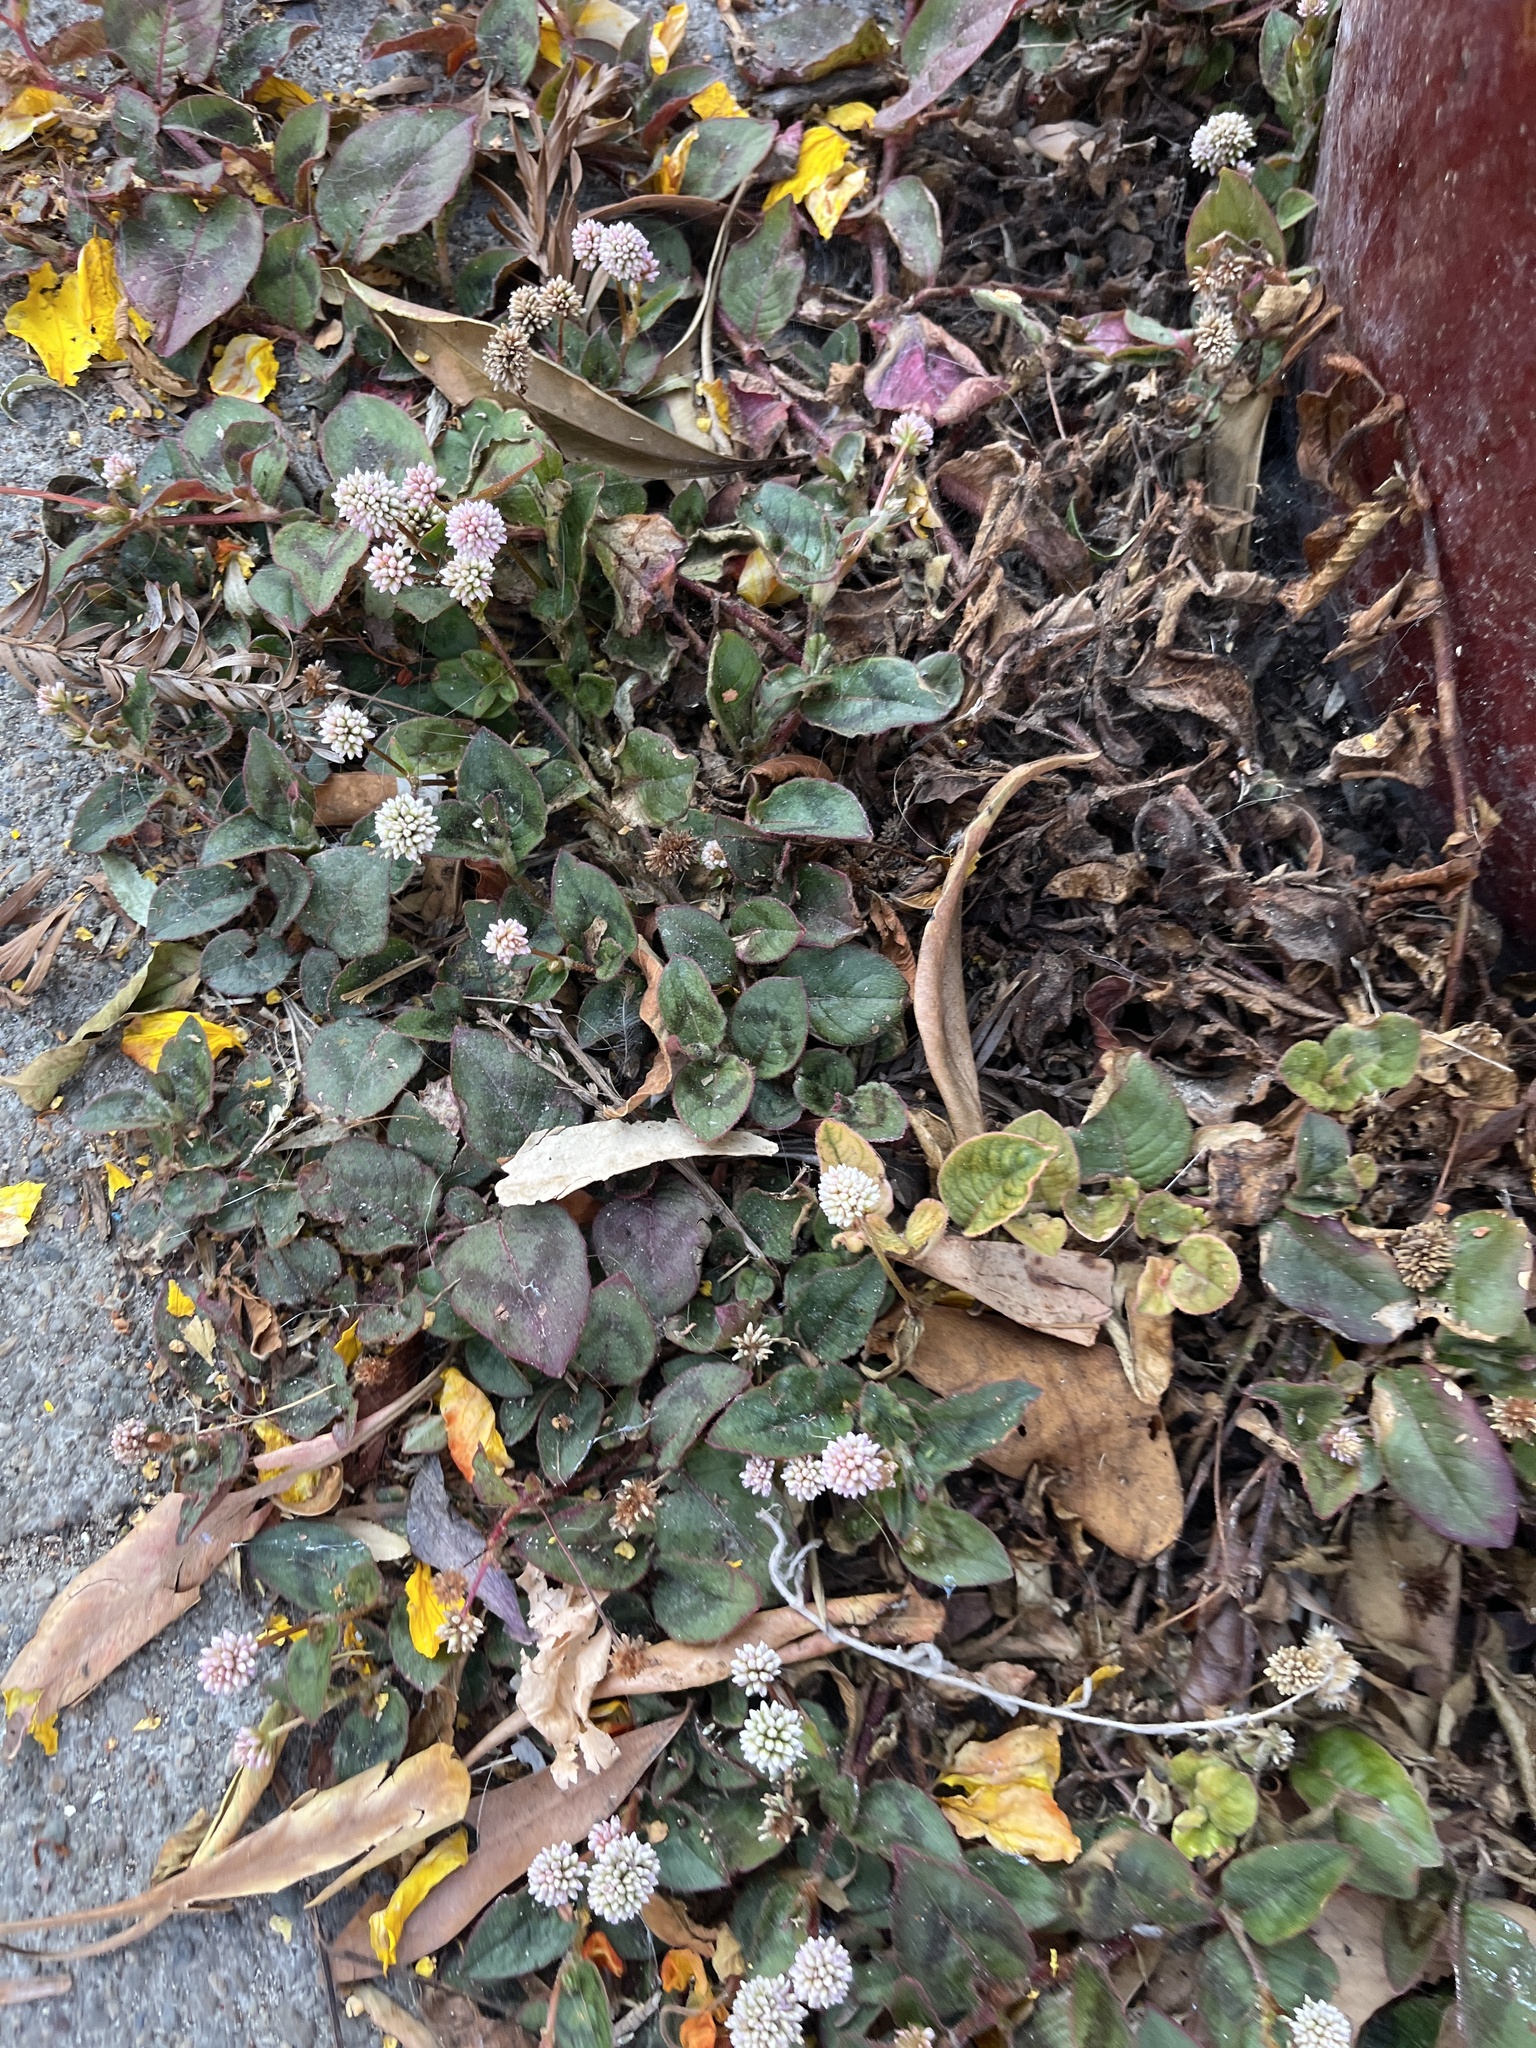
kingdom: Plantae
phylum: Tracheophyta
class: Magnoliopsida
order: Caryophyllales
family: Polygonaceae
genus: Persicaria
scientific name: Persicaria capitata
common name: Pinkhead smartweed
